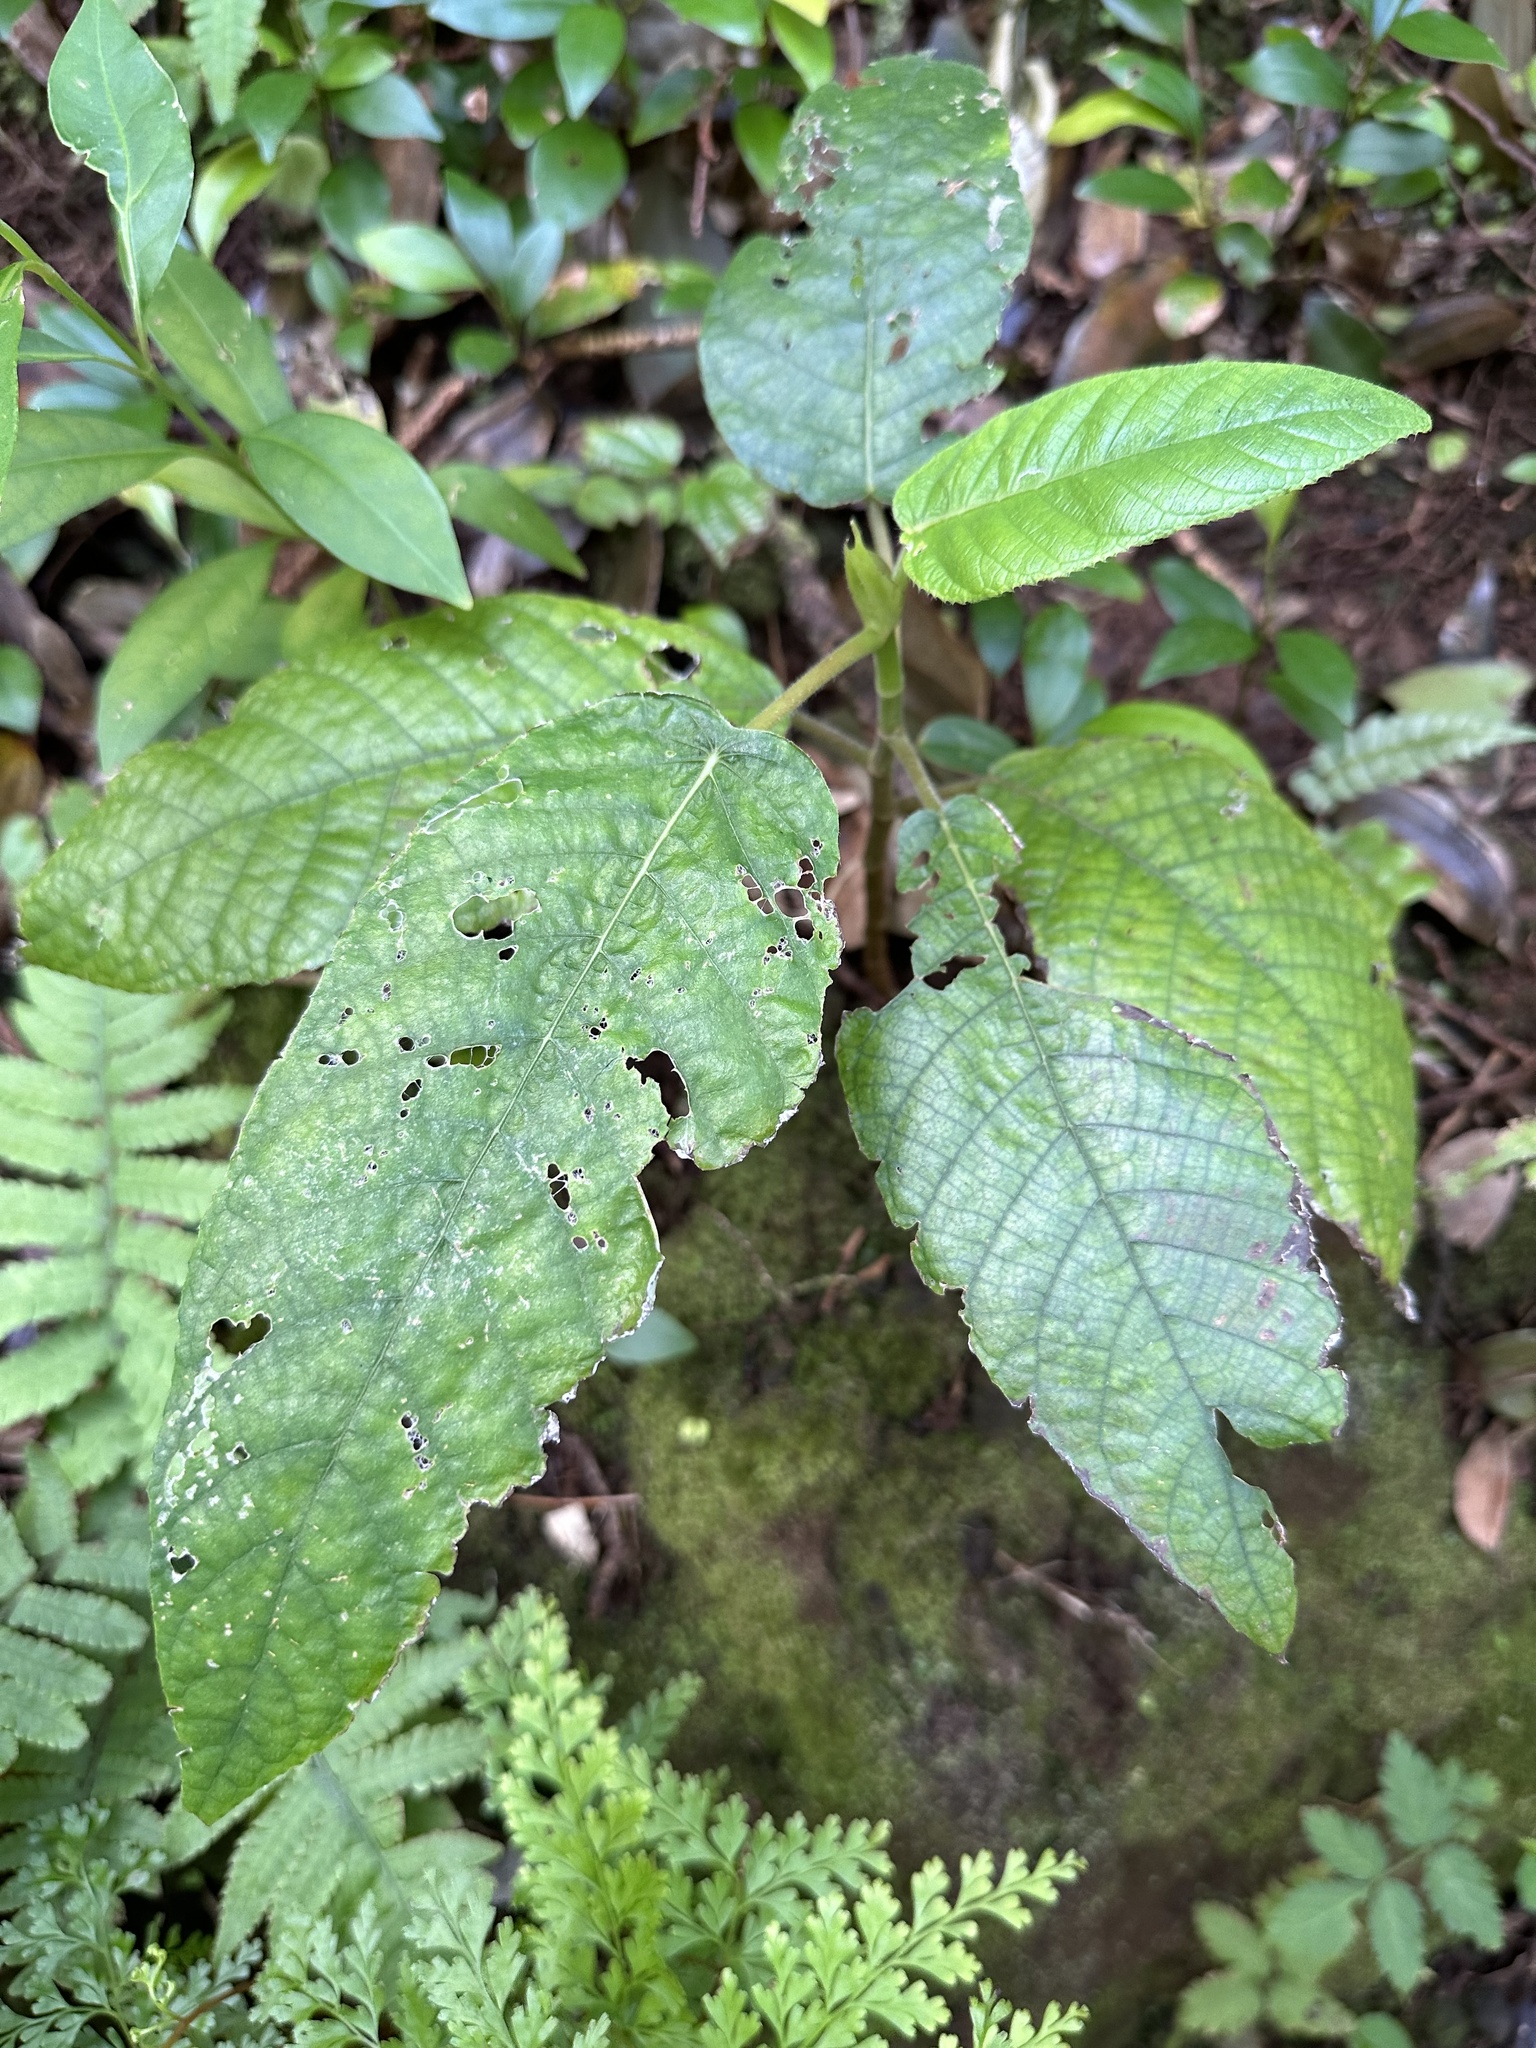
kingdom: Plantae
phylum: Tracheophyta
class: Magnoliopsida
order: Rosales
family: Urticaceae
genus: Cecropia
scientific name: Cecropia obtusifolia
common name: Trumpet tree
